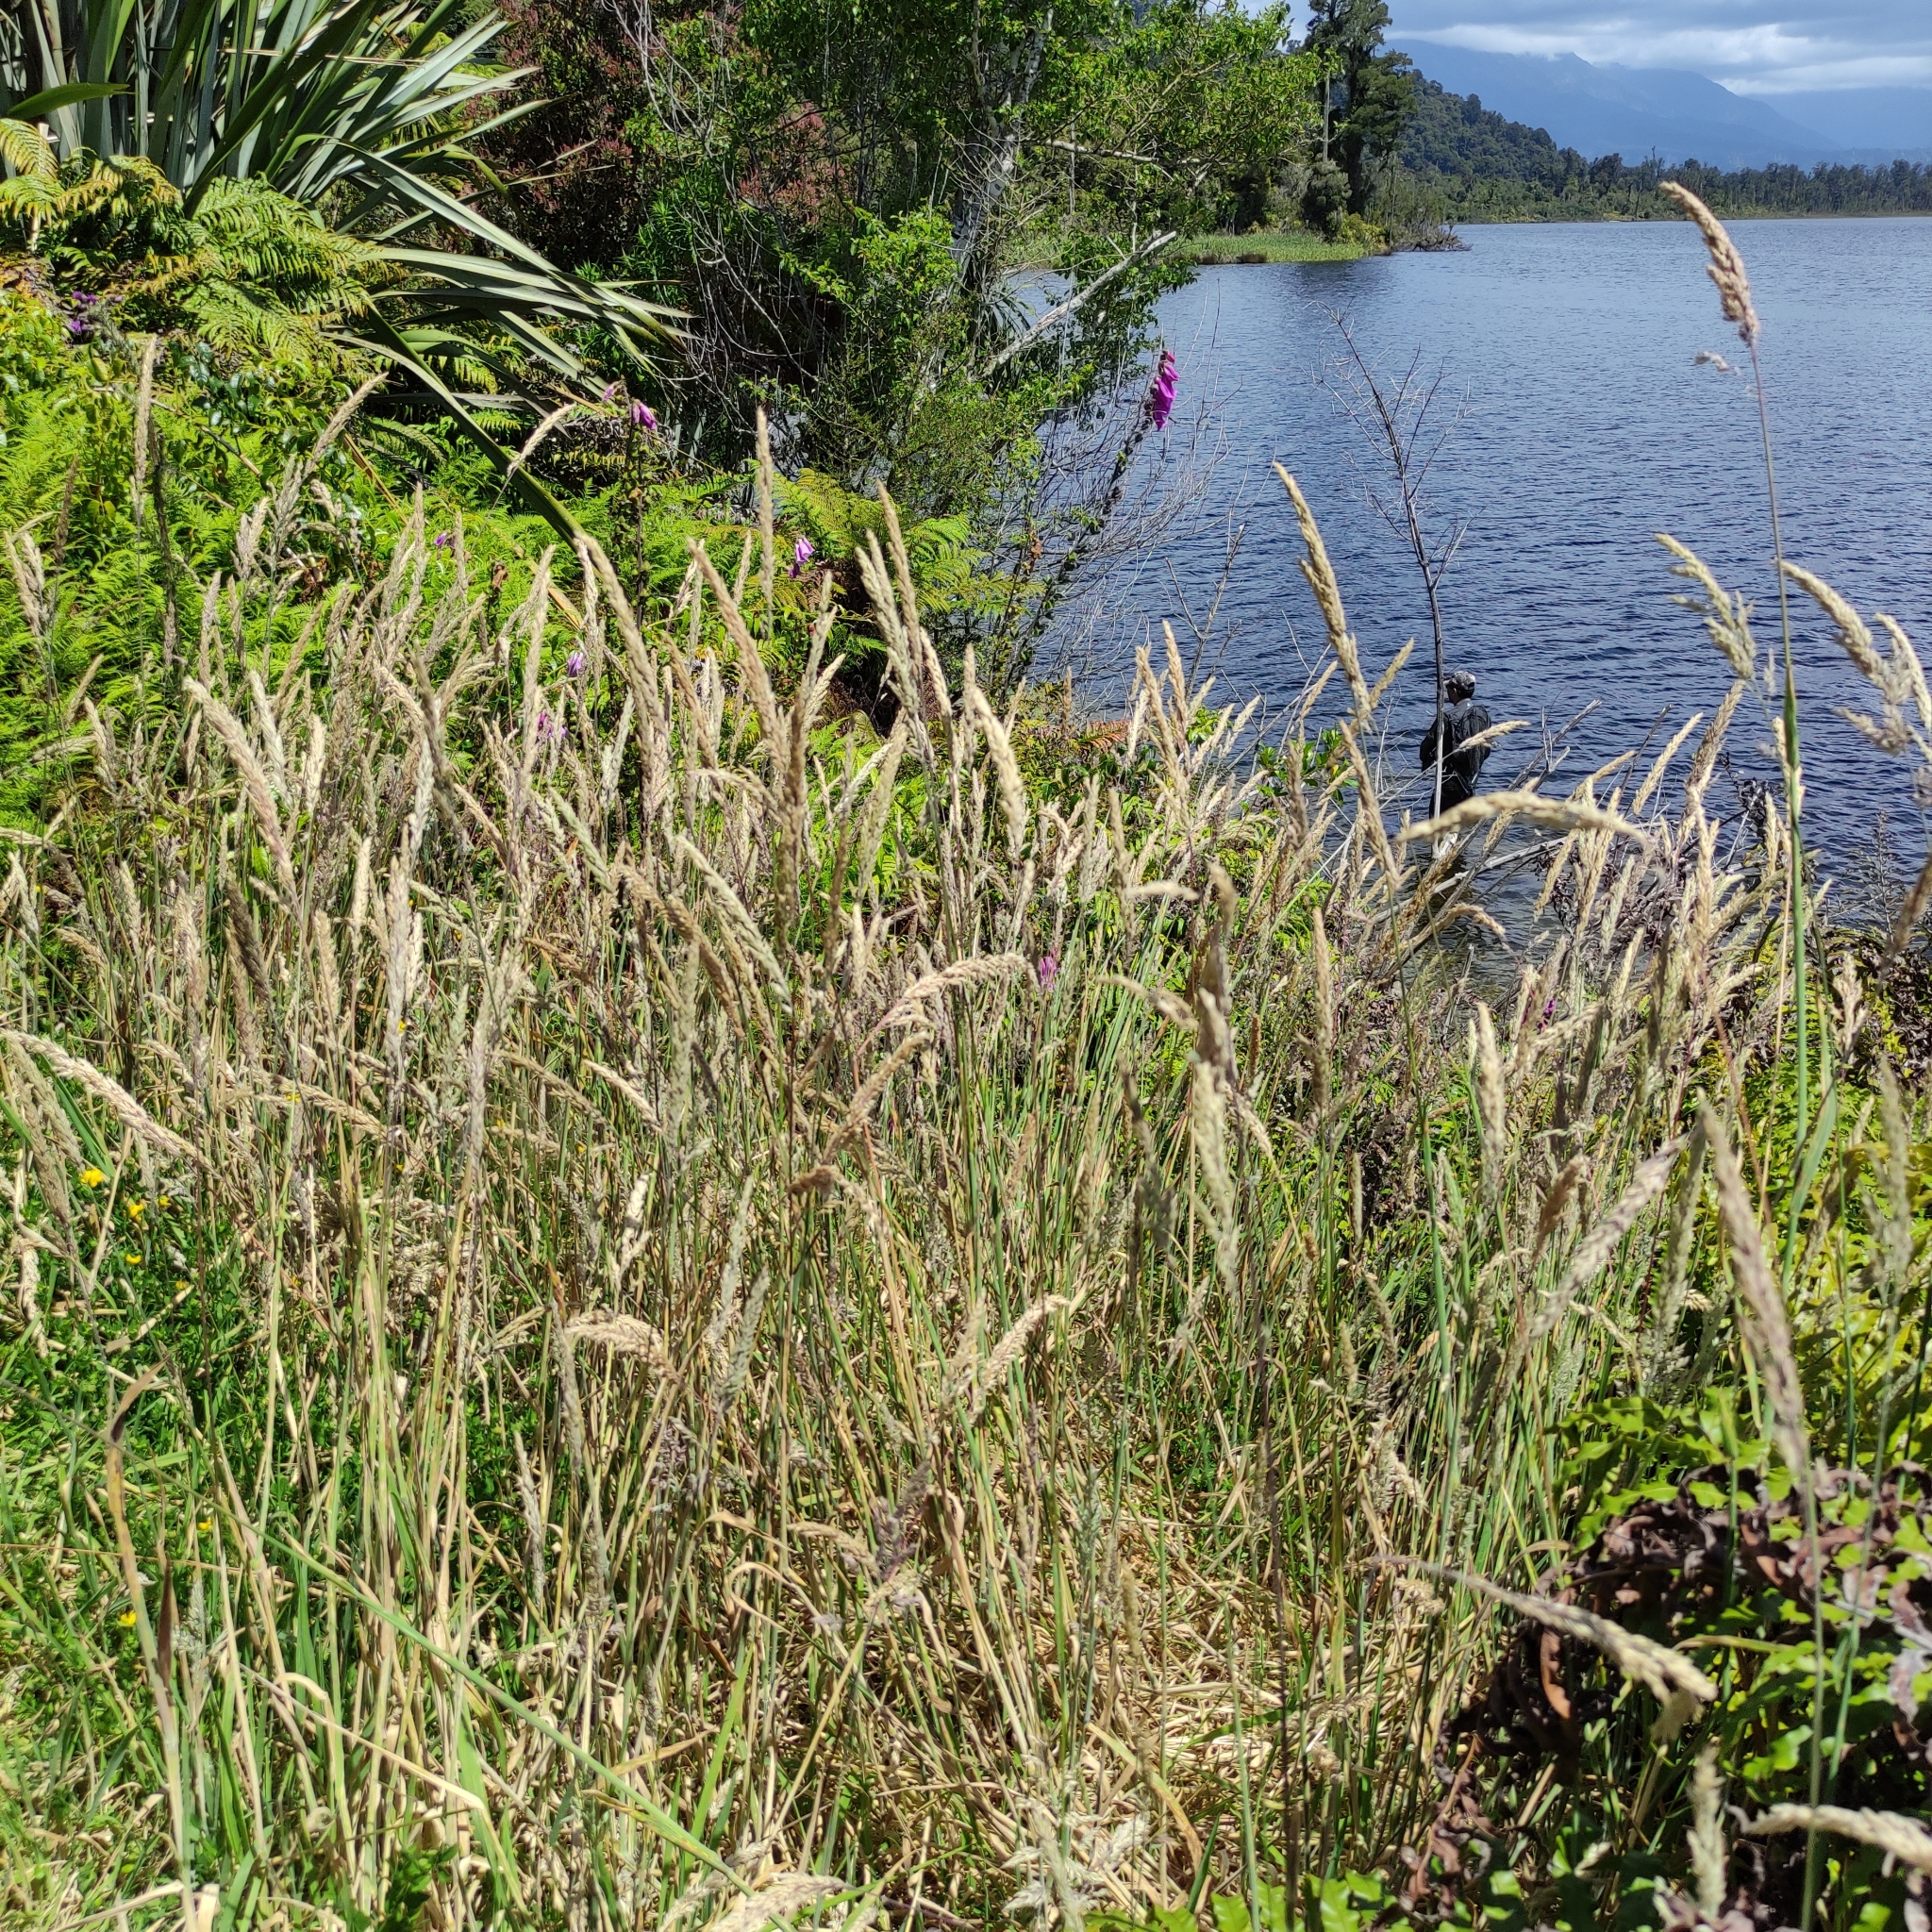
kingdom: Plantae
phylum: Tracheophyta
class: Liliopsida
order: Poales
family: Poaceae
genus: Holcus
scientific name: Holcus lanatus
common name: Yorkshire-fog
